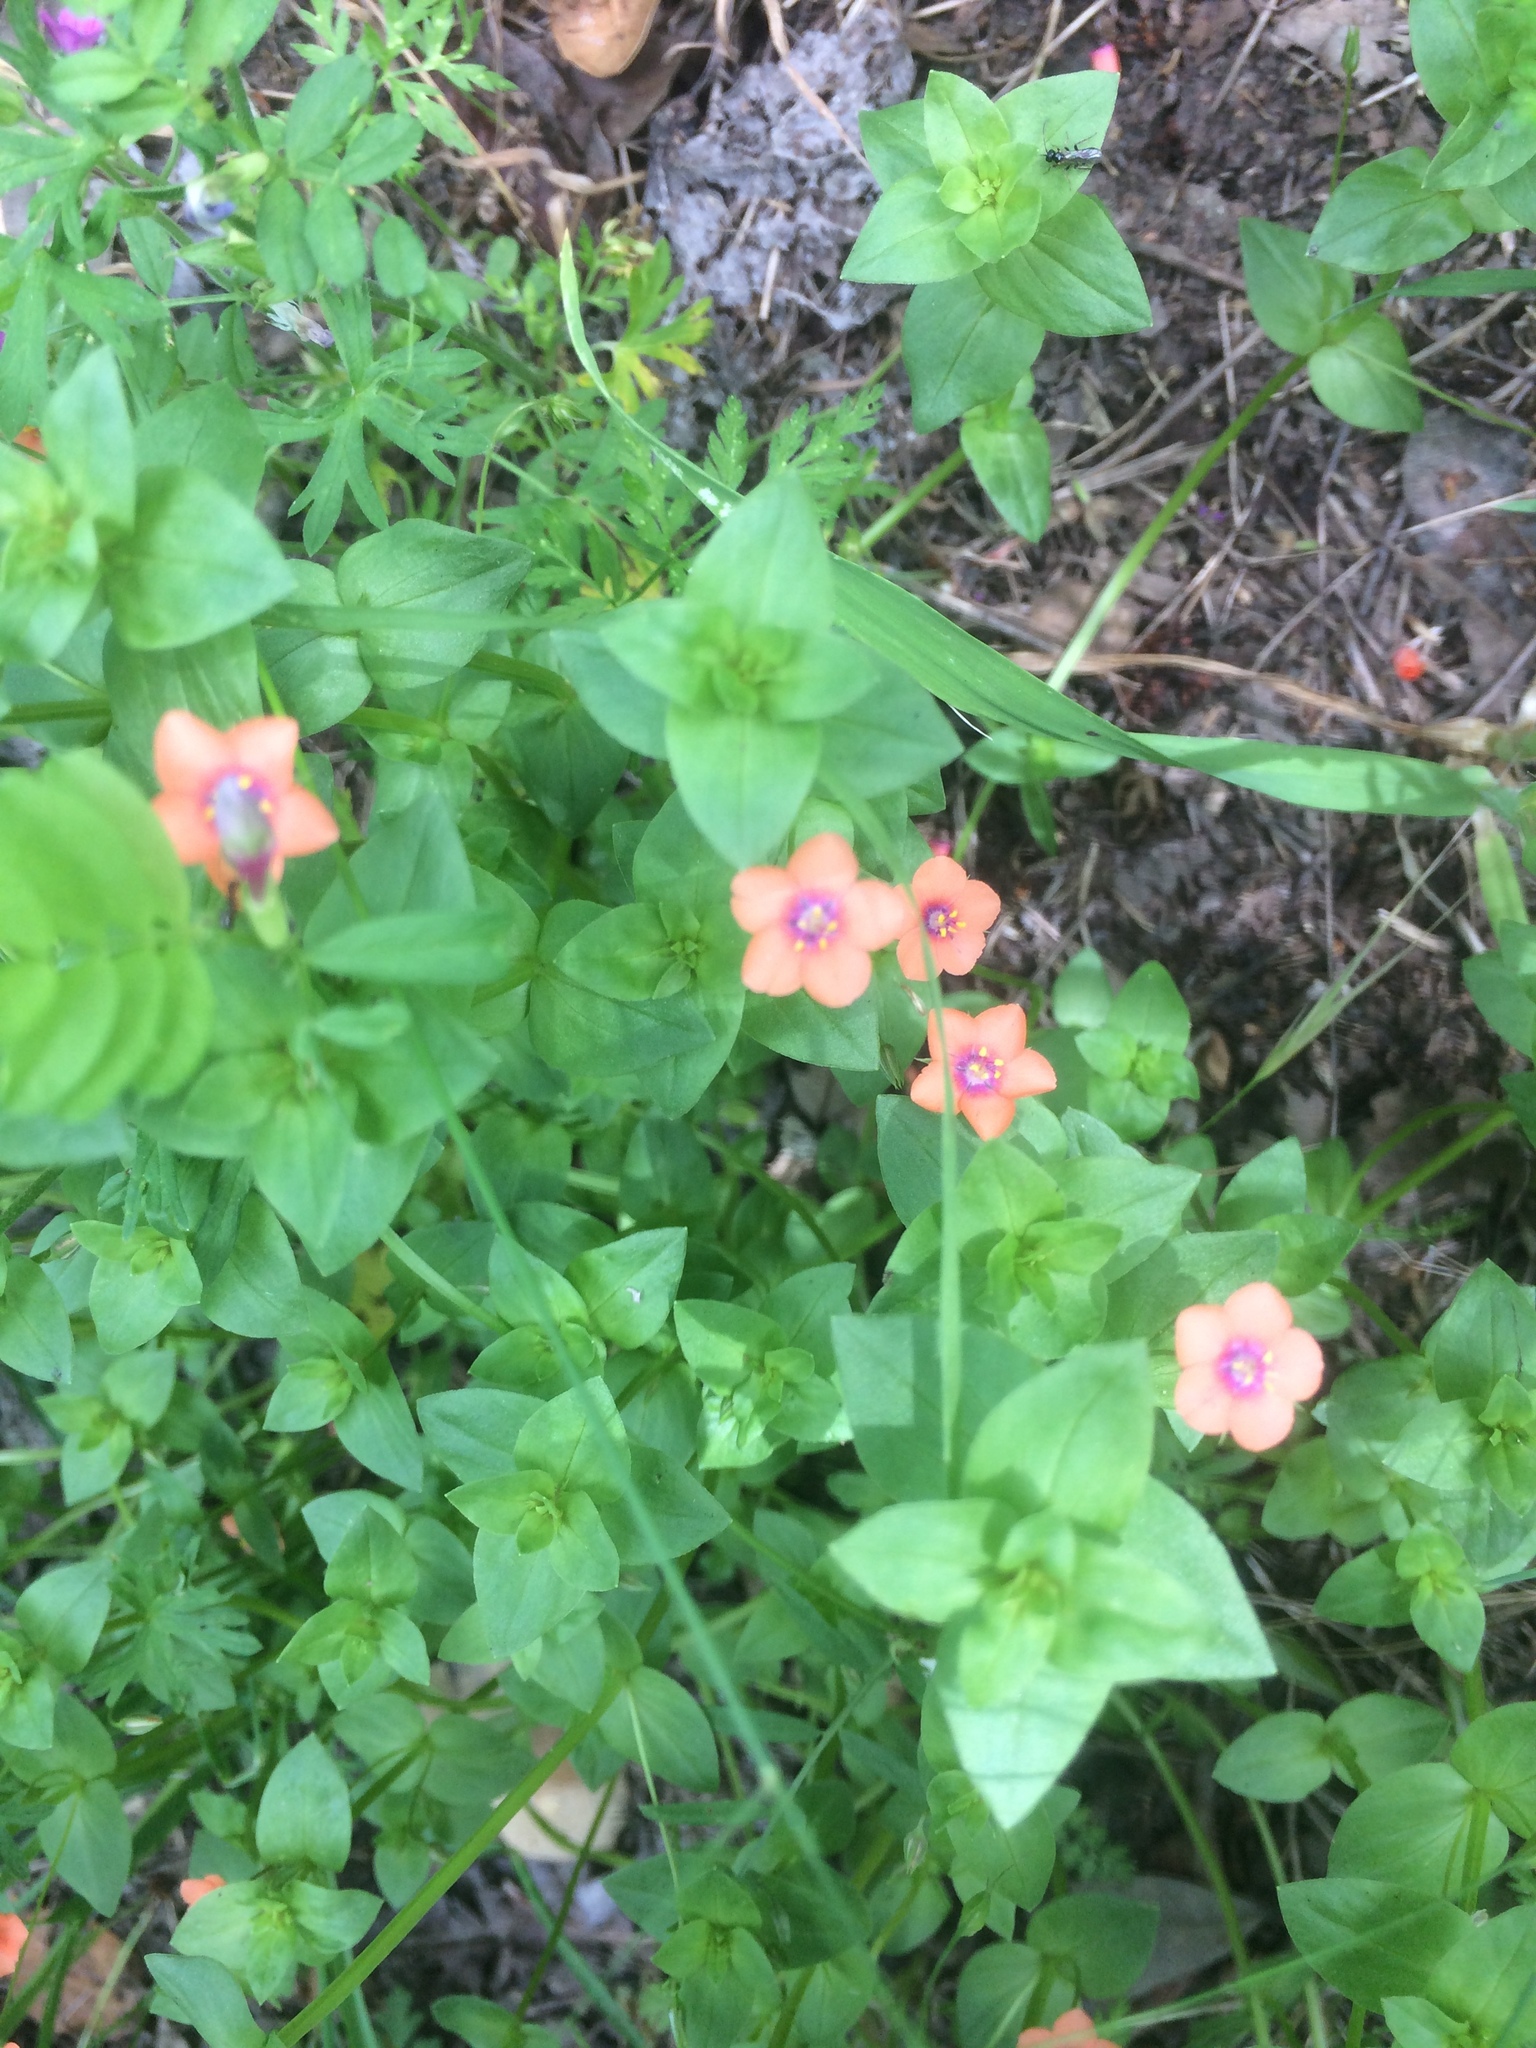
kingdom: Plantae
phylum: Tracheophyta
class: Magnoliopsida
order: Ericales
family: Primulaceae
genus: Lysimachia
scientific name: Lysimachia arvensis
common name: Scarlet pimpernel
